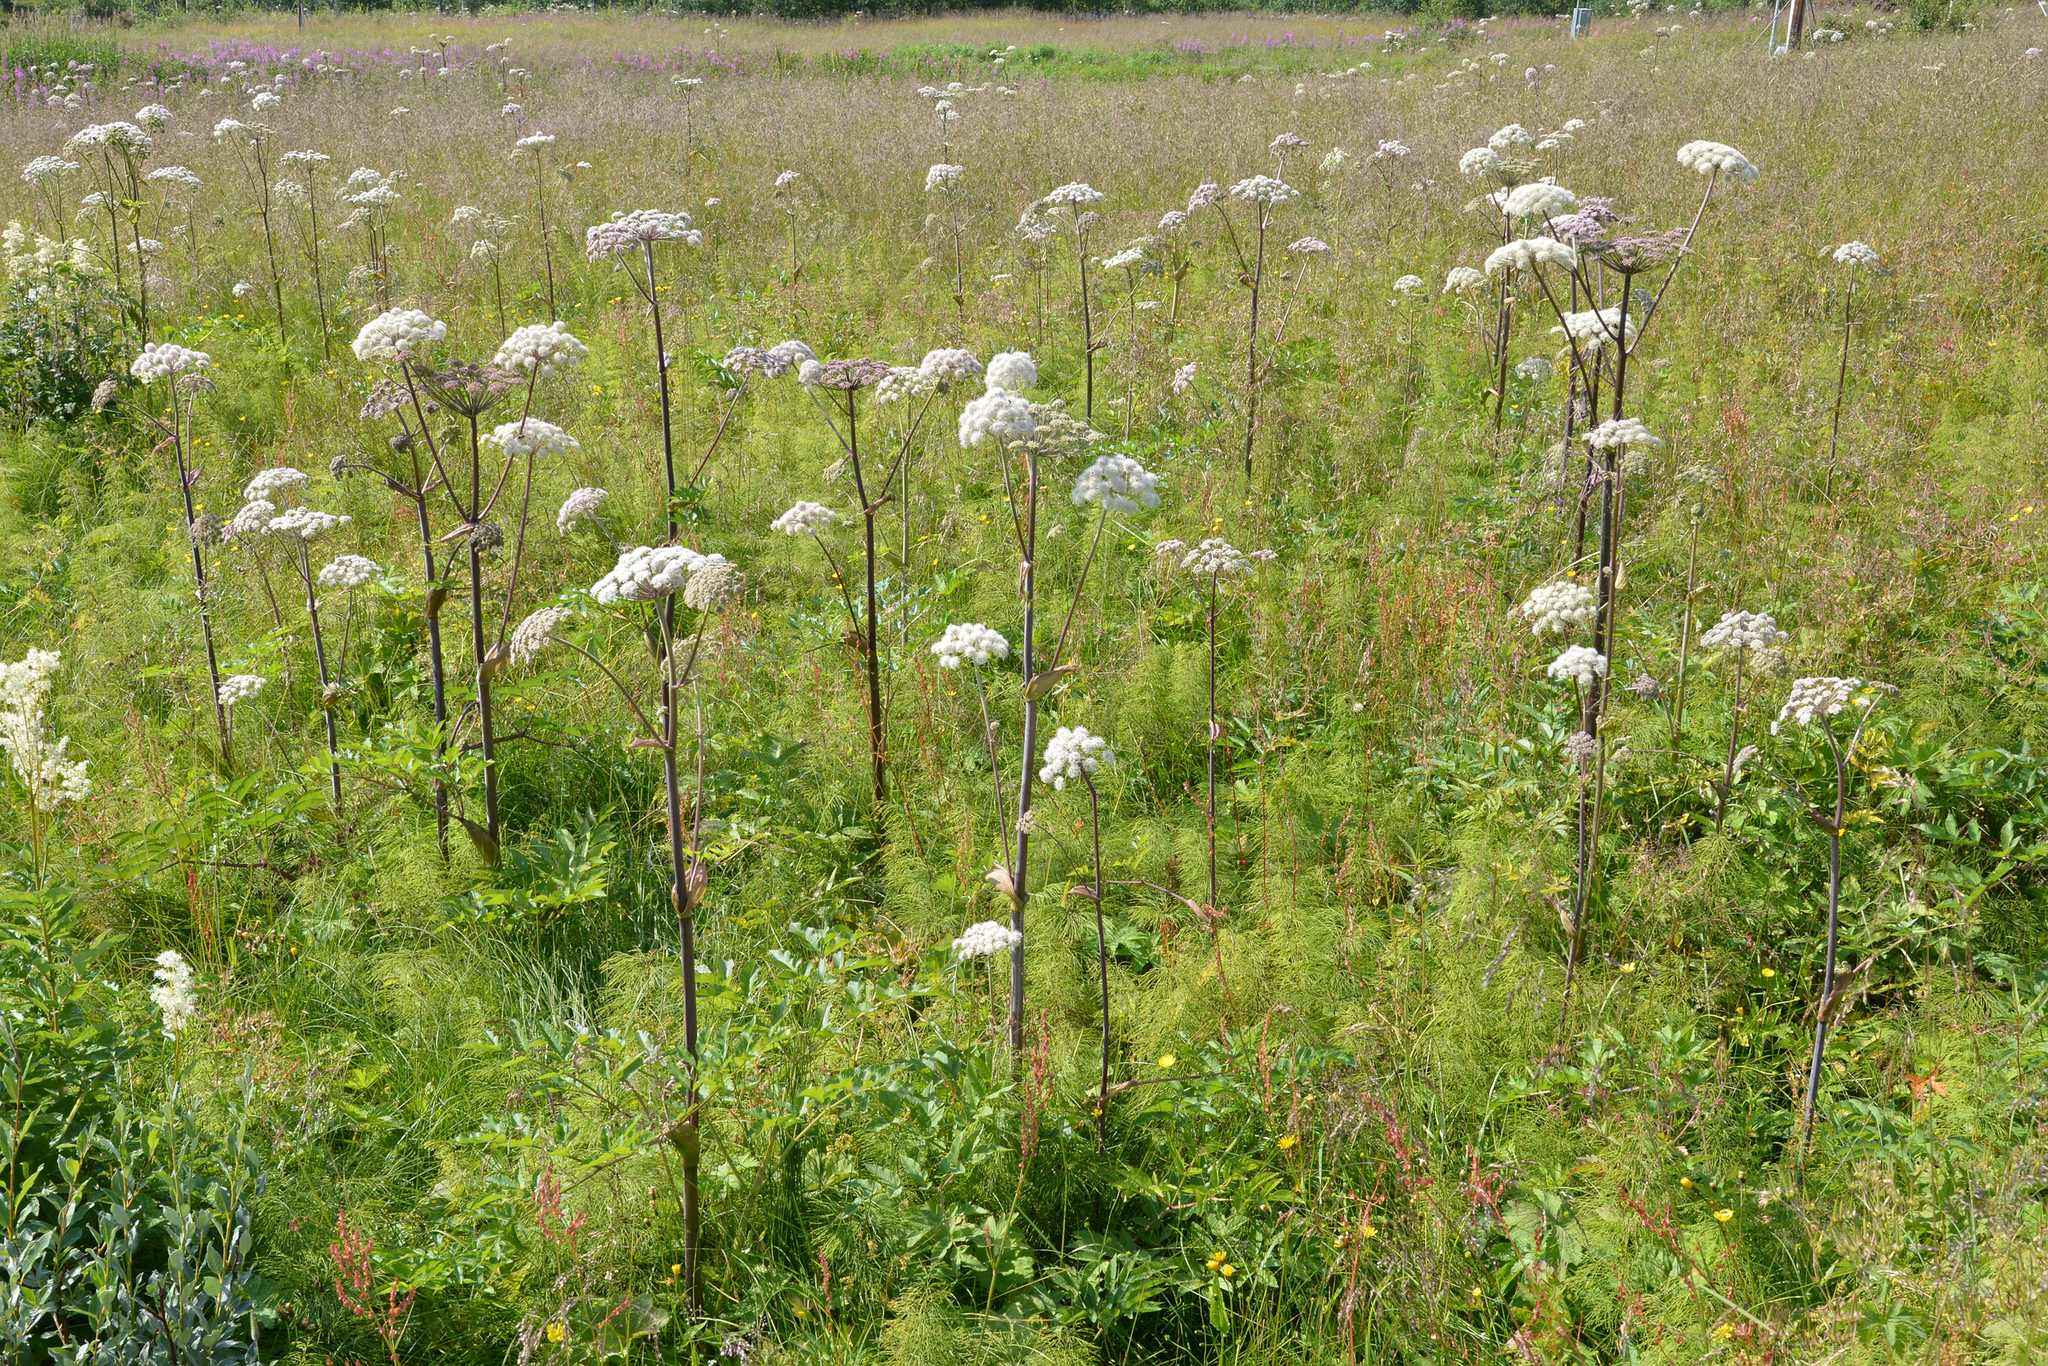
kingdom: Plantae
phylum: Tracheophyta
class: Magnoliopsida
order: Apiales
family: Apiaceae
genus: Angelica
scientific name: Angelica sylvestris
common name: Wild angelica
